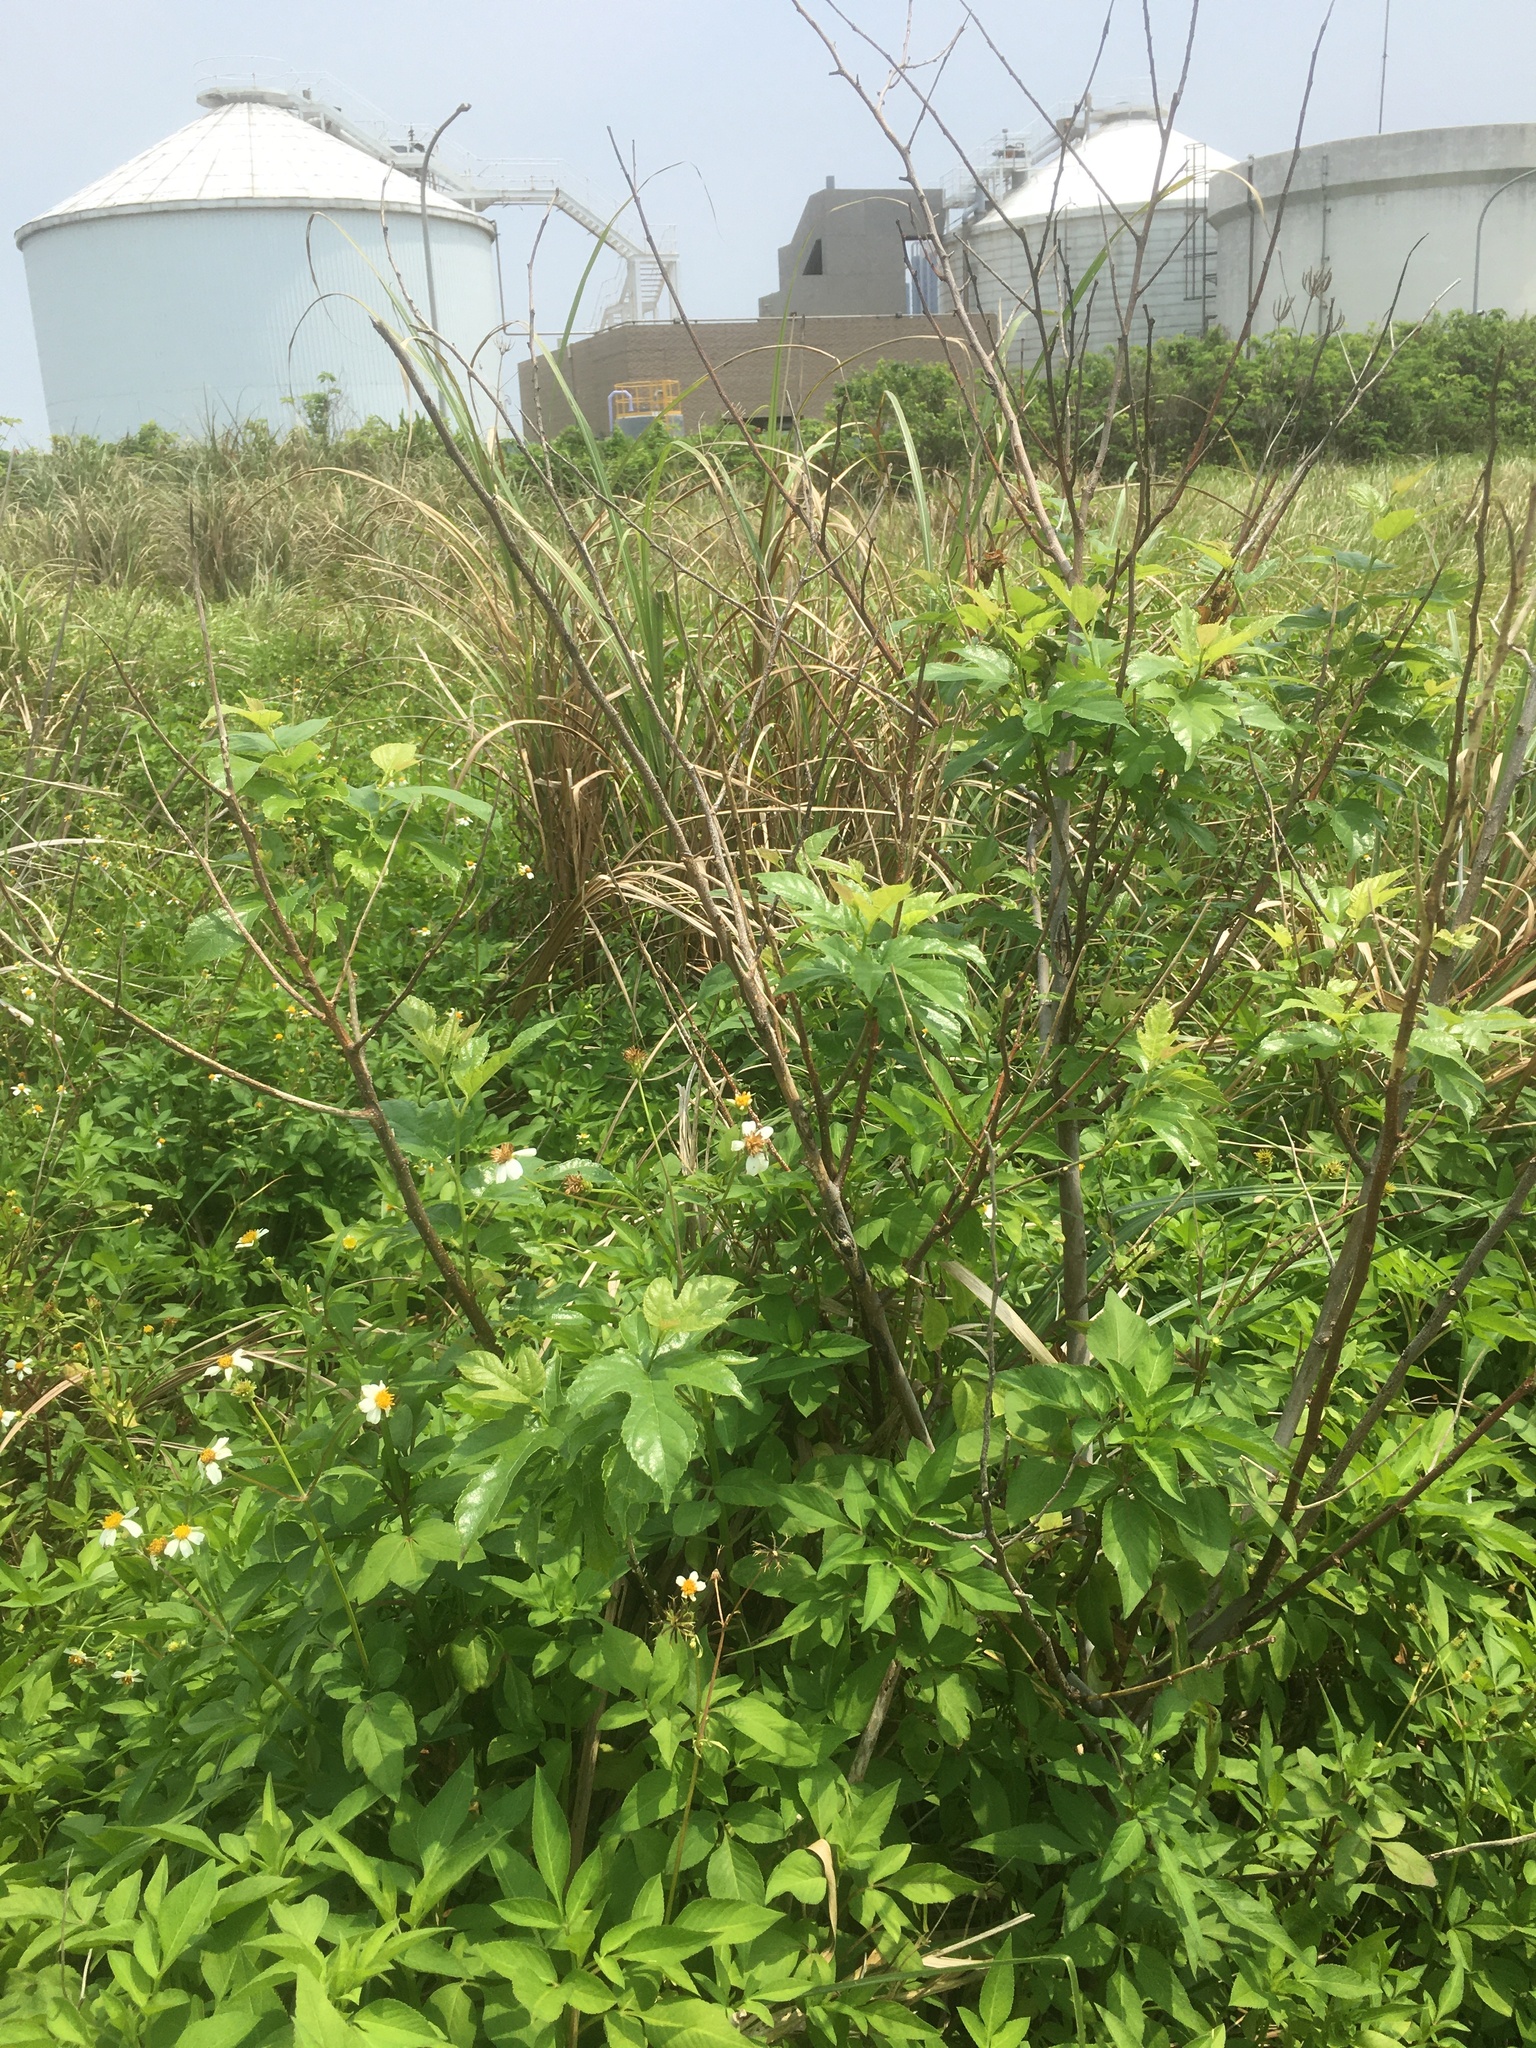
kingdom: Plantae
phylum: Tracheophyta
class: Magnoliopsida
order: Rosales
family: Moraceae
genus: Morus
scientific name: Morus indica
